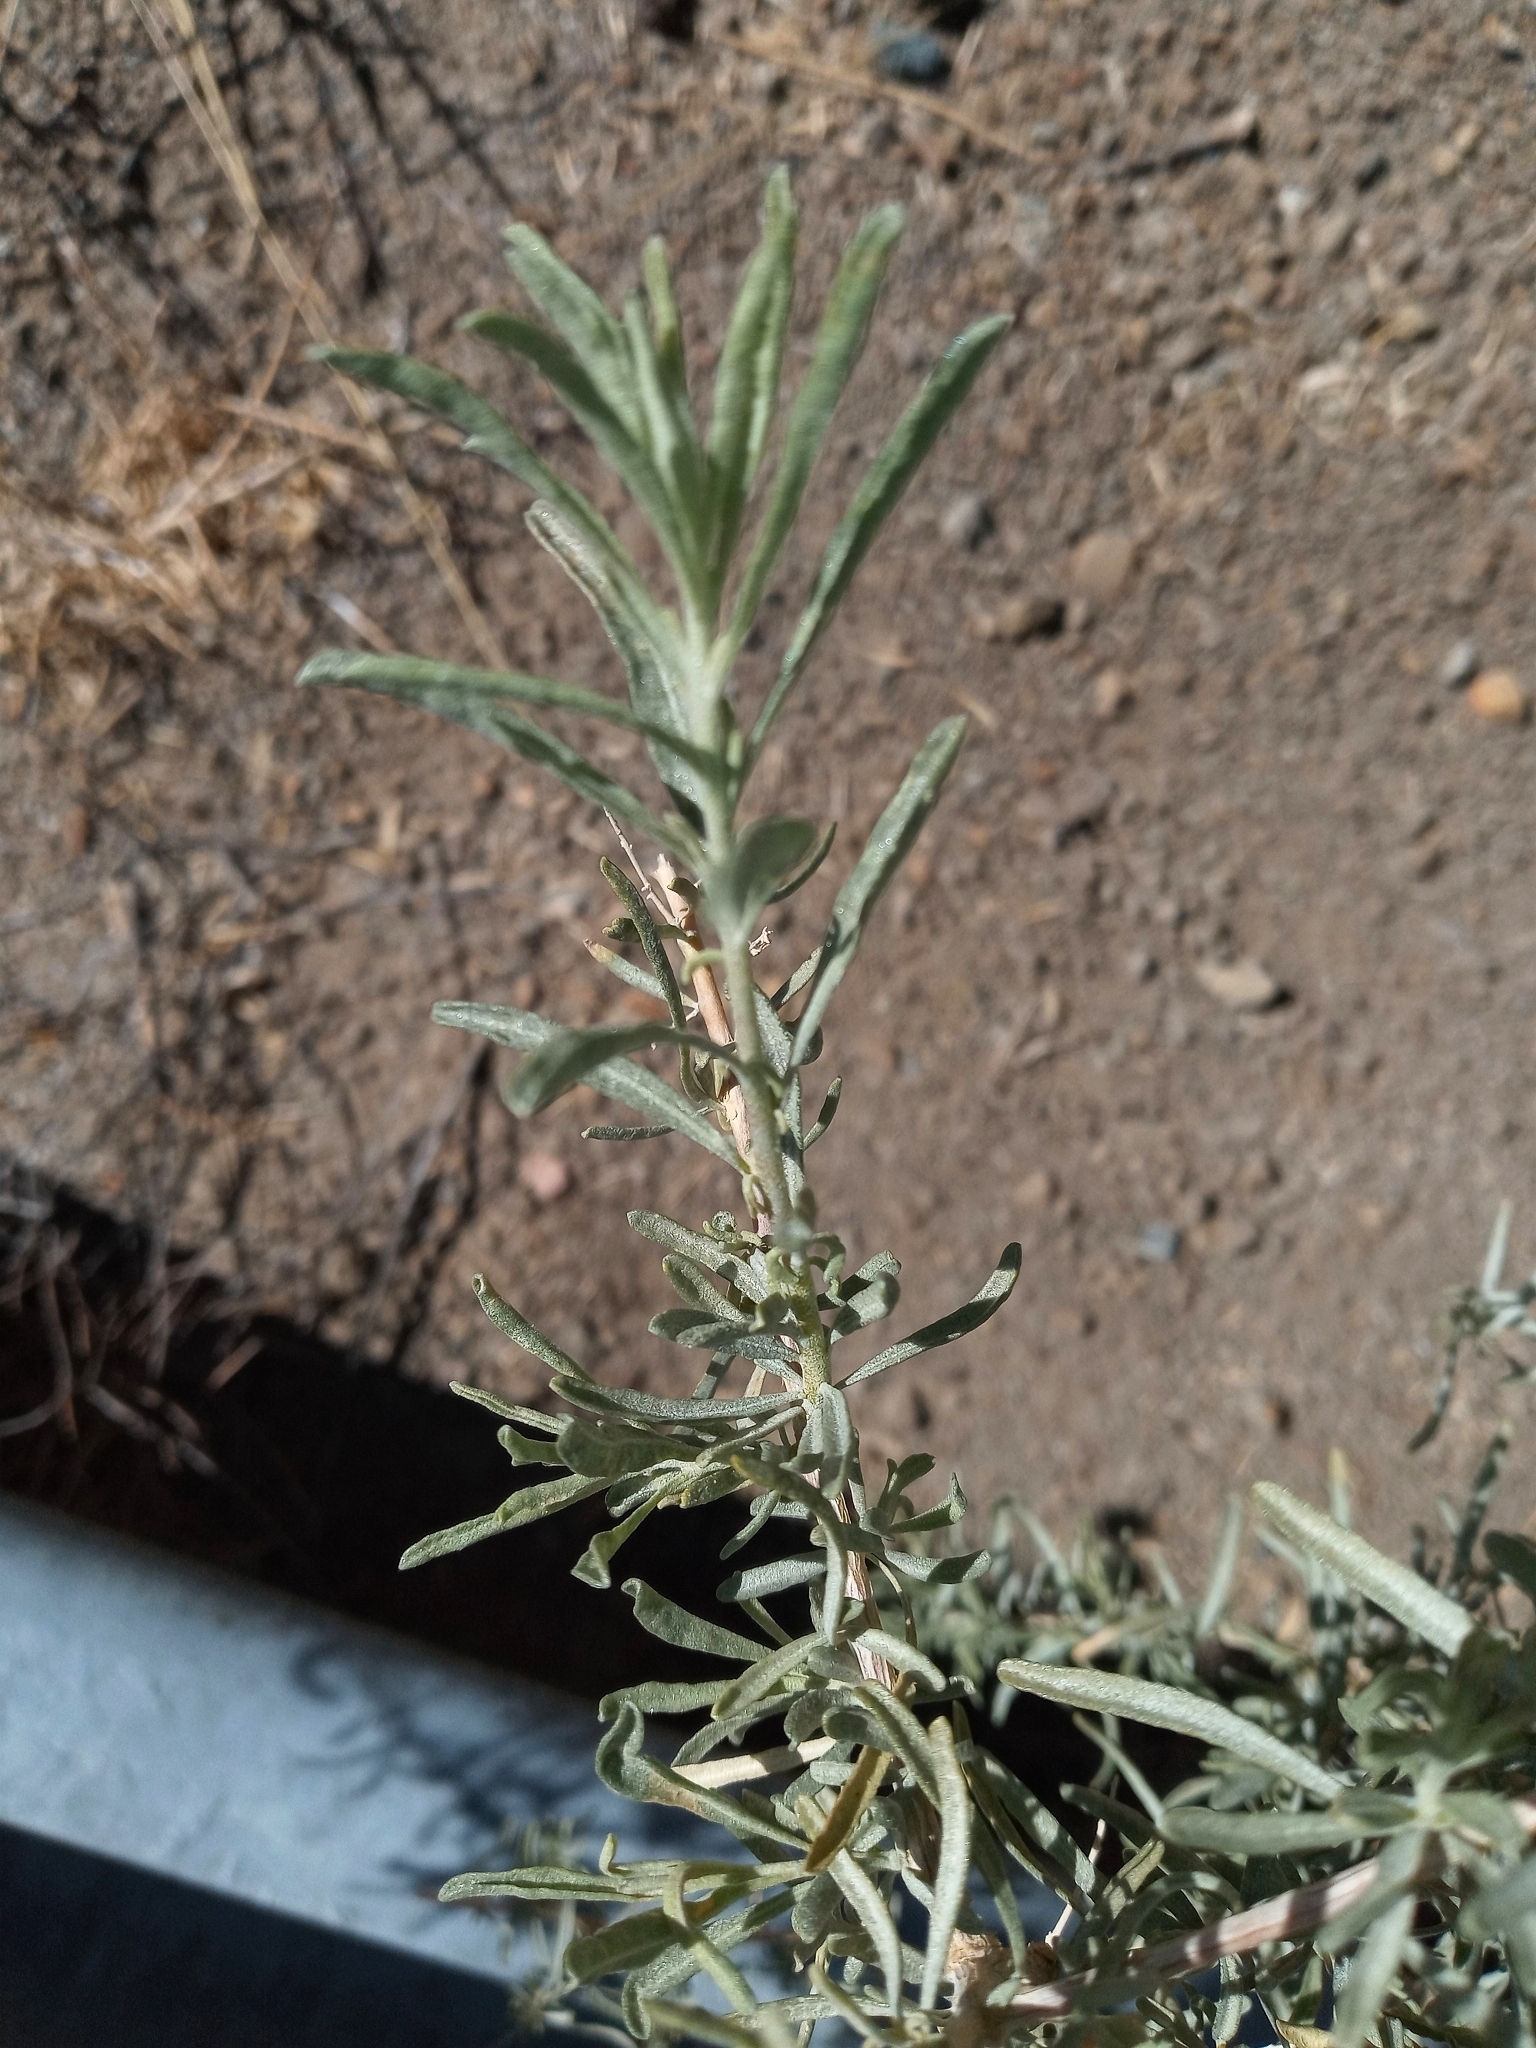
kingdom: Plantae
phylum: Tracheophyta
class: Magnoliopsida
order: Caryophyllales
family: Amaranthaceae
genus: Atriplex
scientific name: Atriplex canescens
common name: Four-wing saltbush
